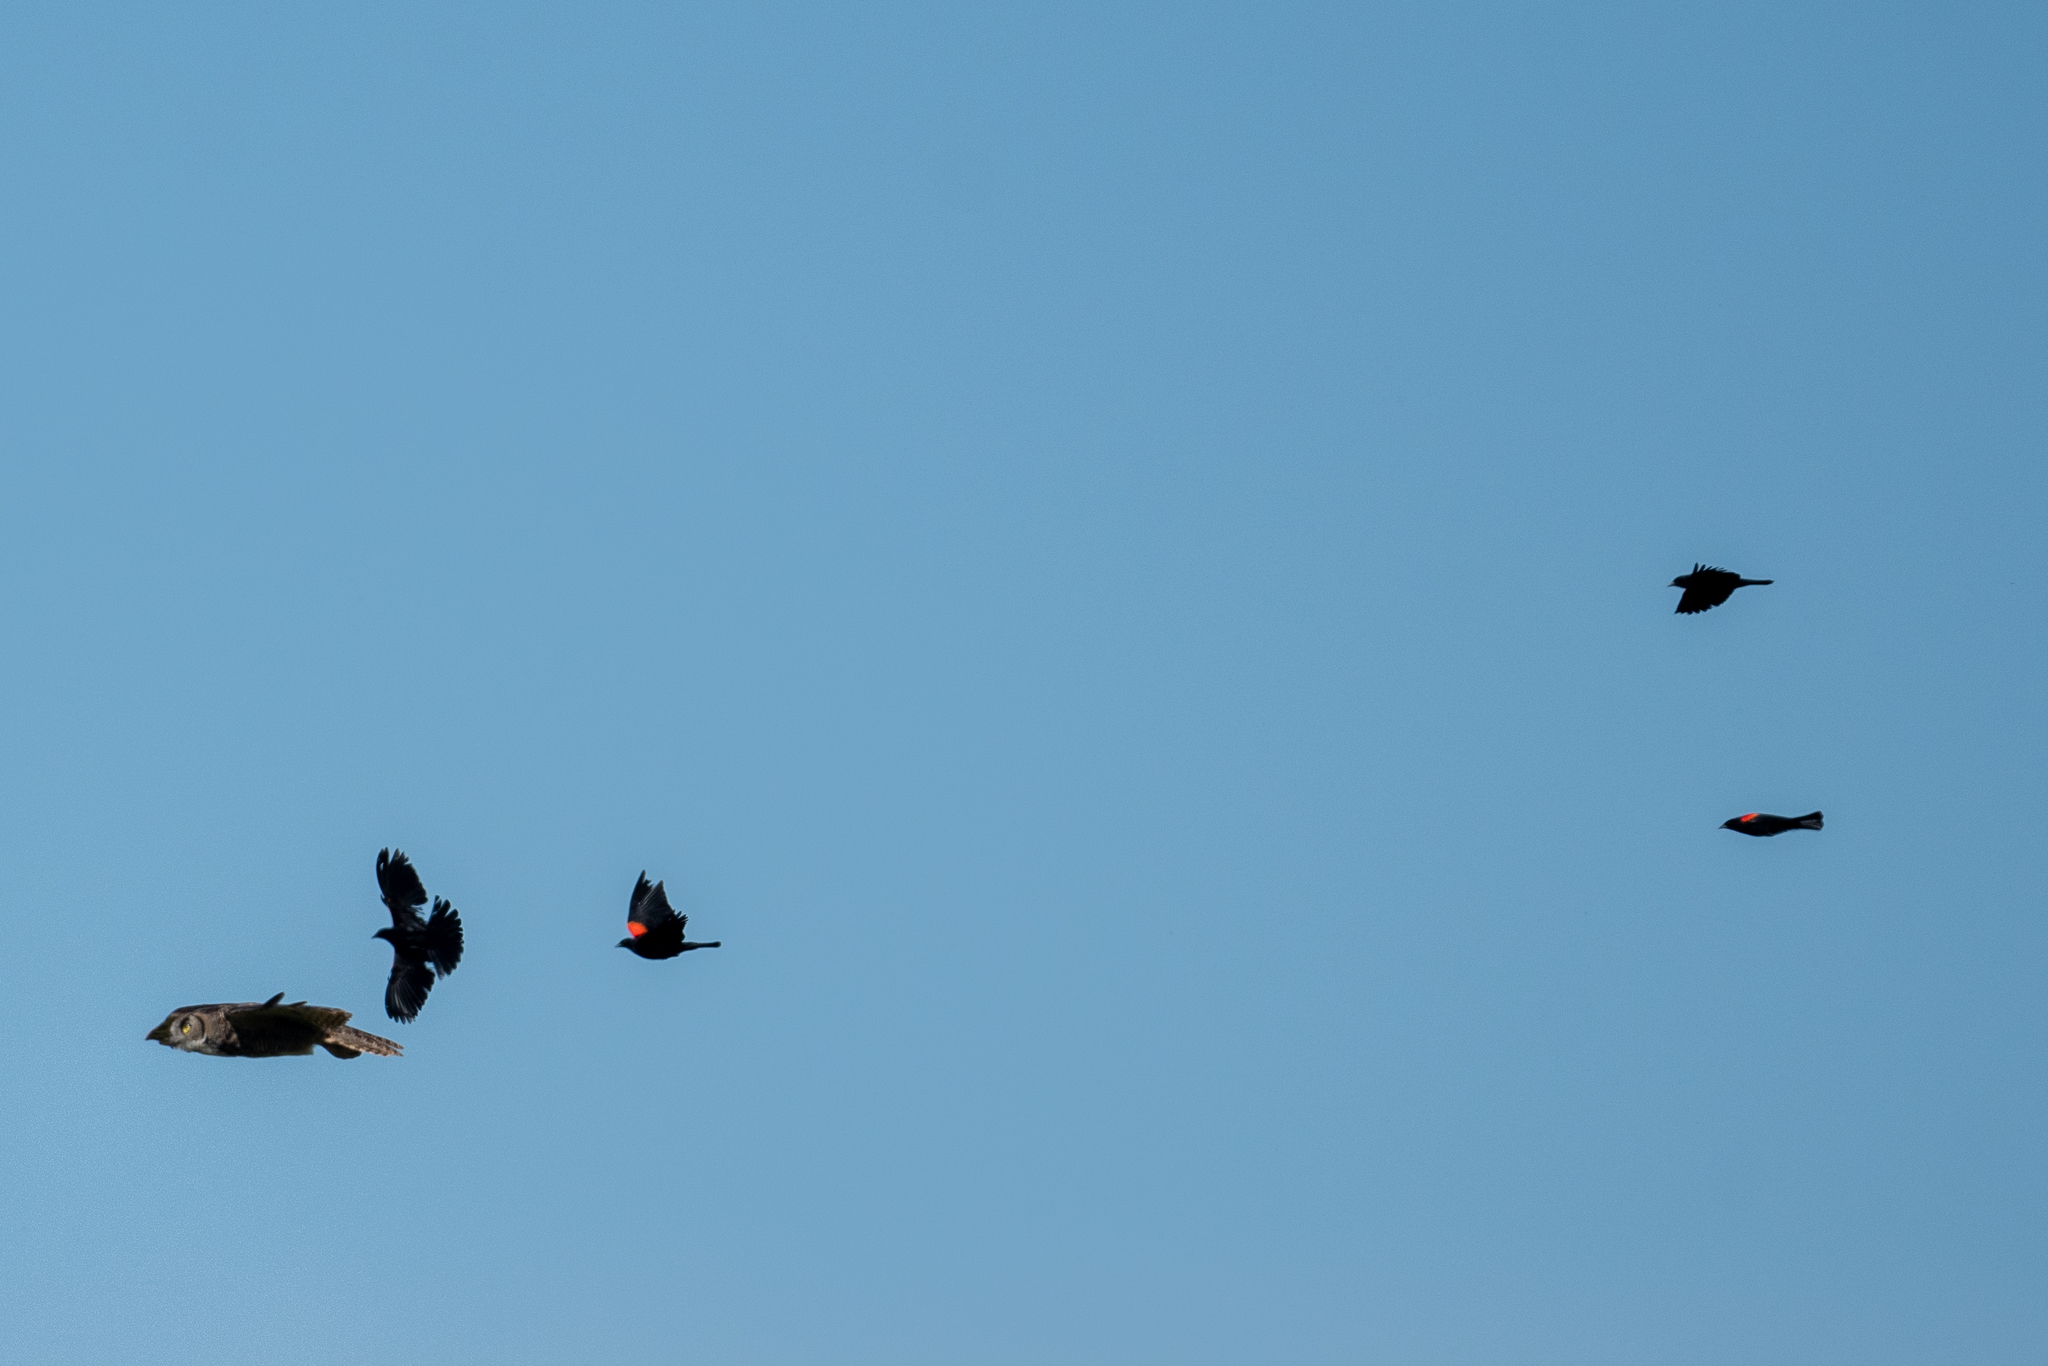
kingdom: Animalia
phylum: Chordata
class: Aves
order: Strigiformes
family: Strigidae
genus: Bubo
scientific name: Bubo virginianus
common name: Great horned owl
